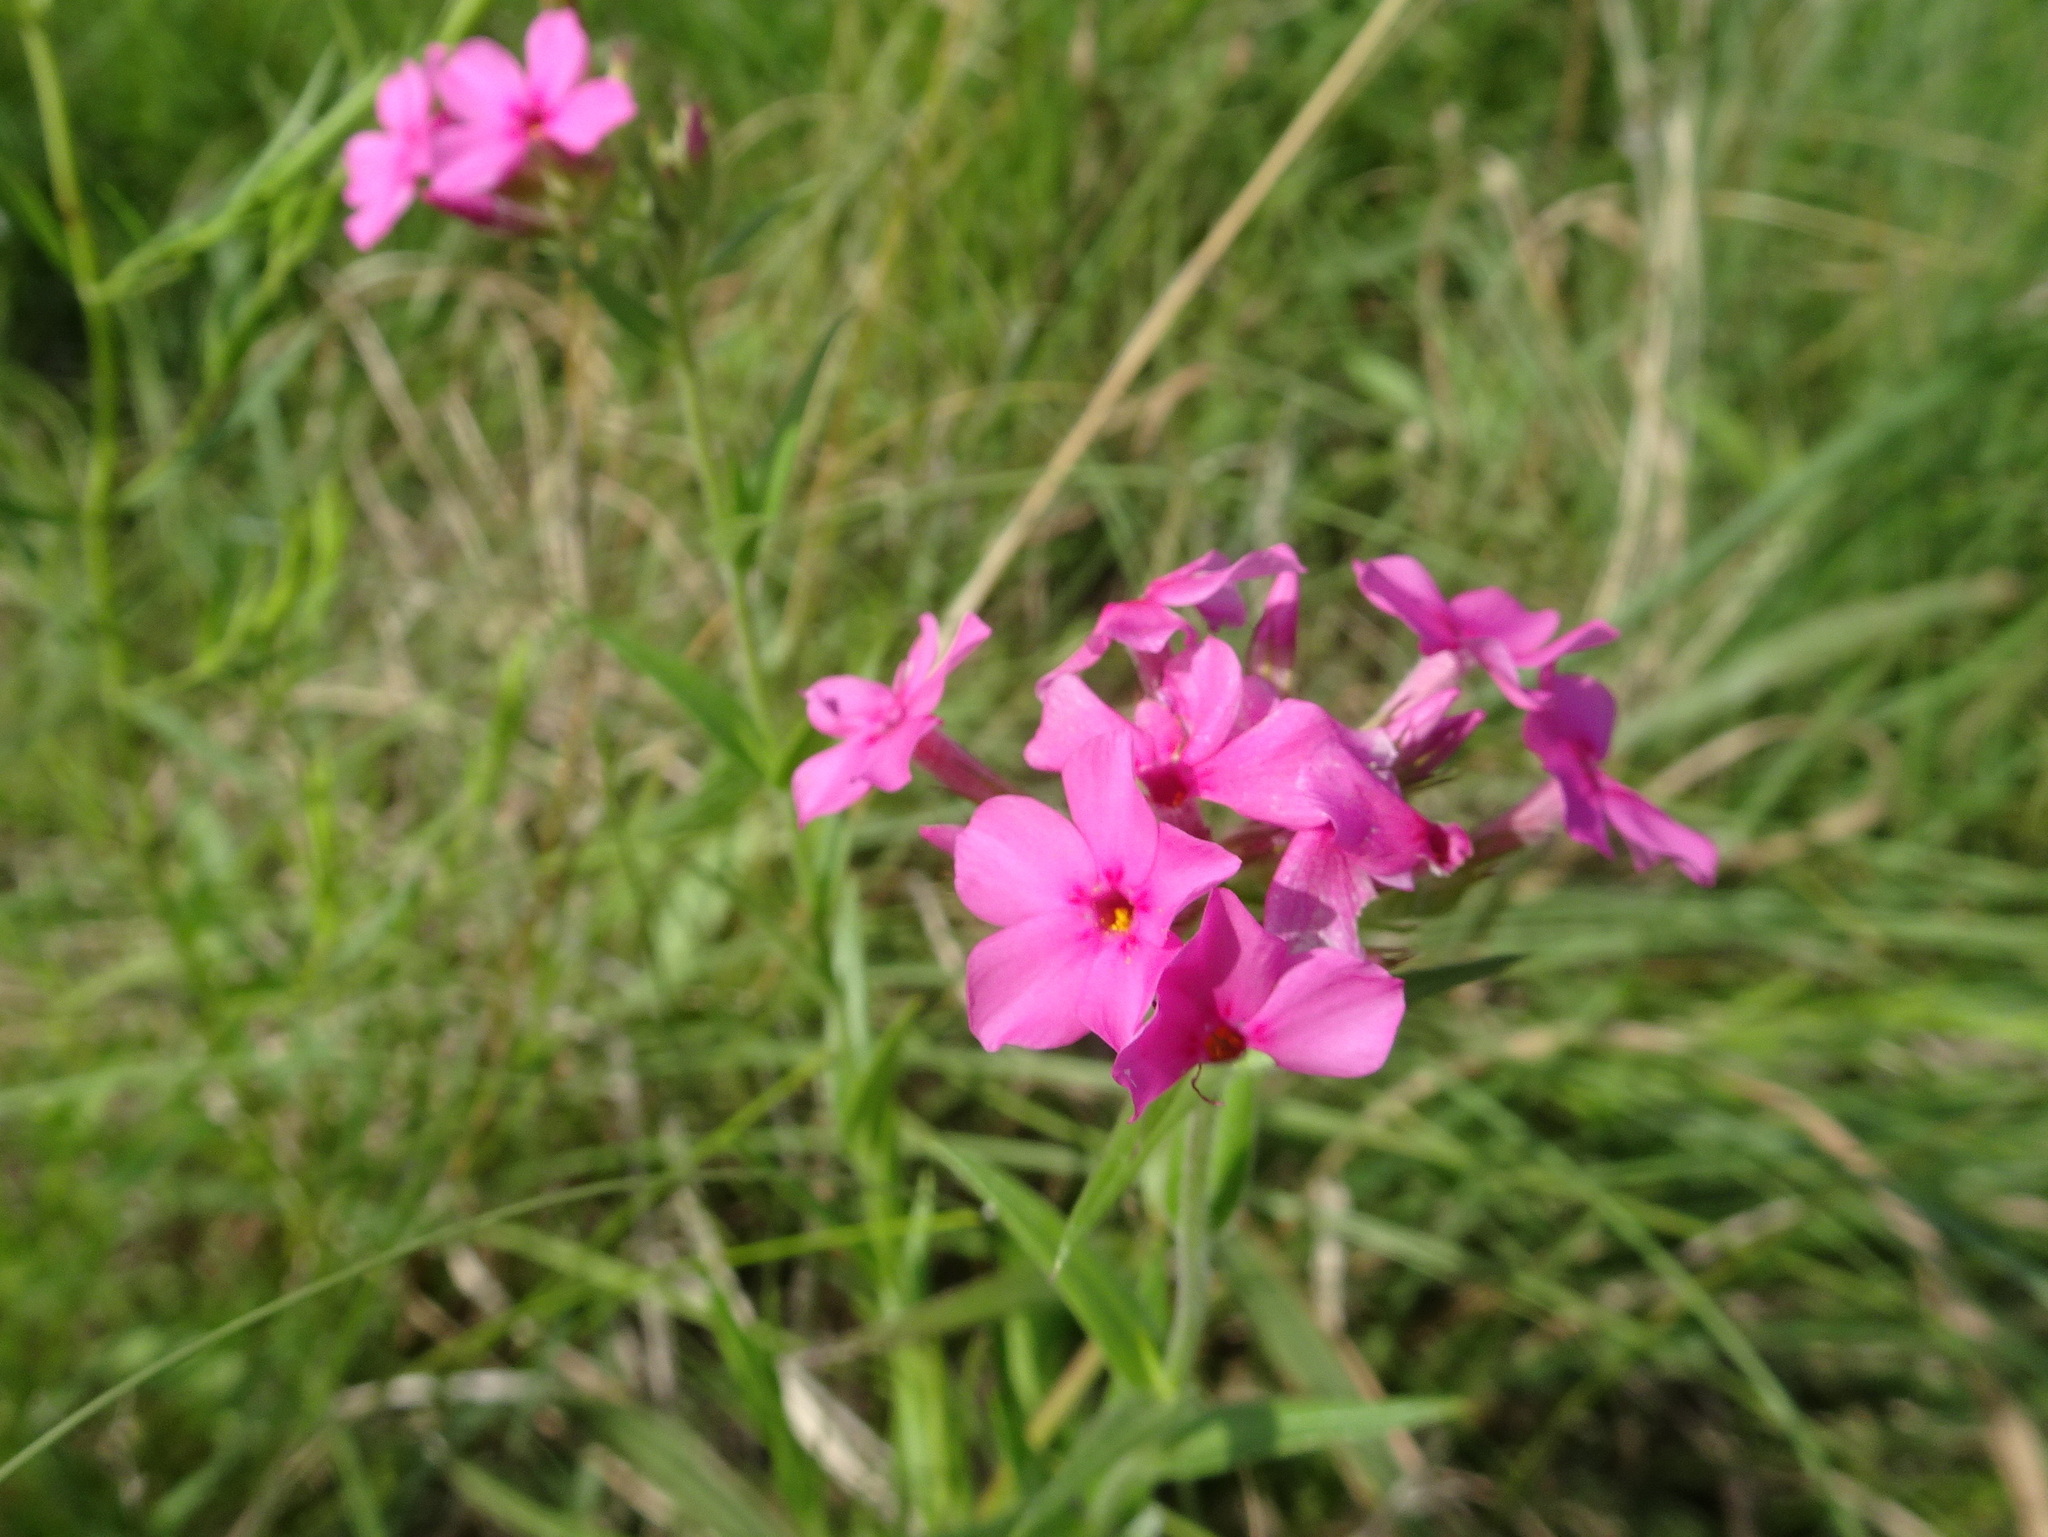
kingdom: Plantae
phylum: Tracheophyta
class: Magnoliopsida
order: Ericales
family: Polemoniaceae
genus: Phlox
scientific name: Phlox pilosa
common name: Prairie phlox
